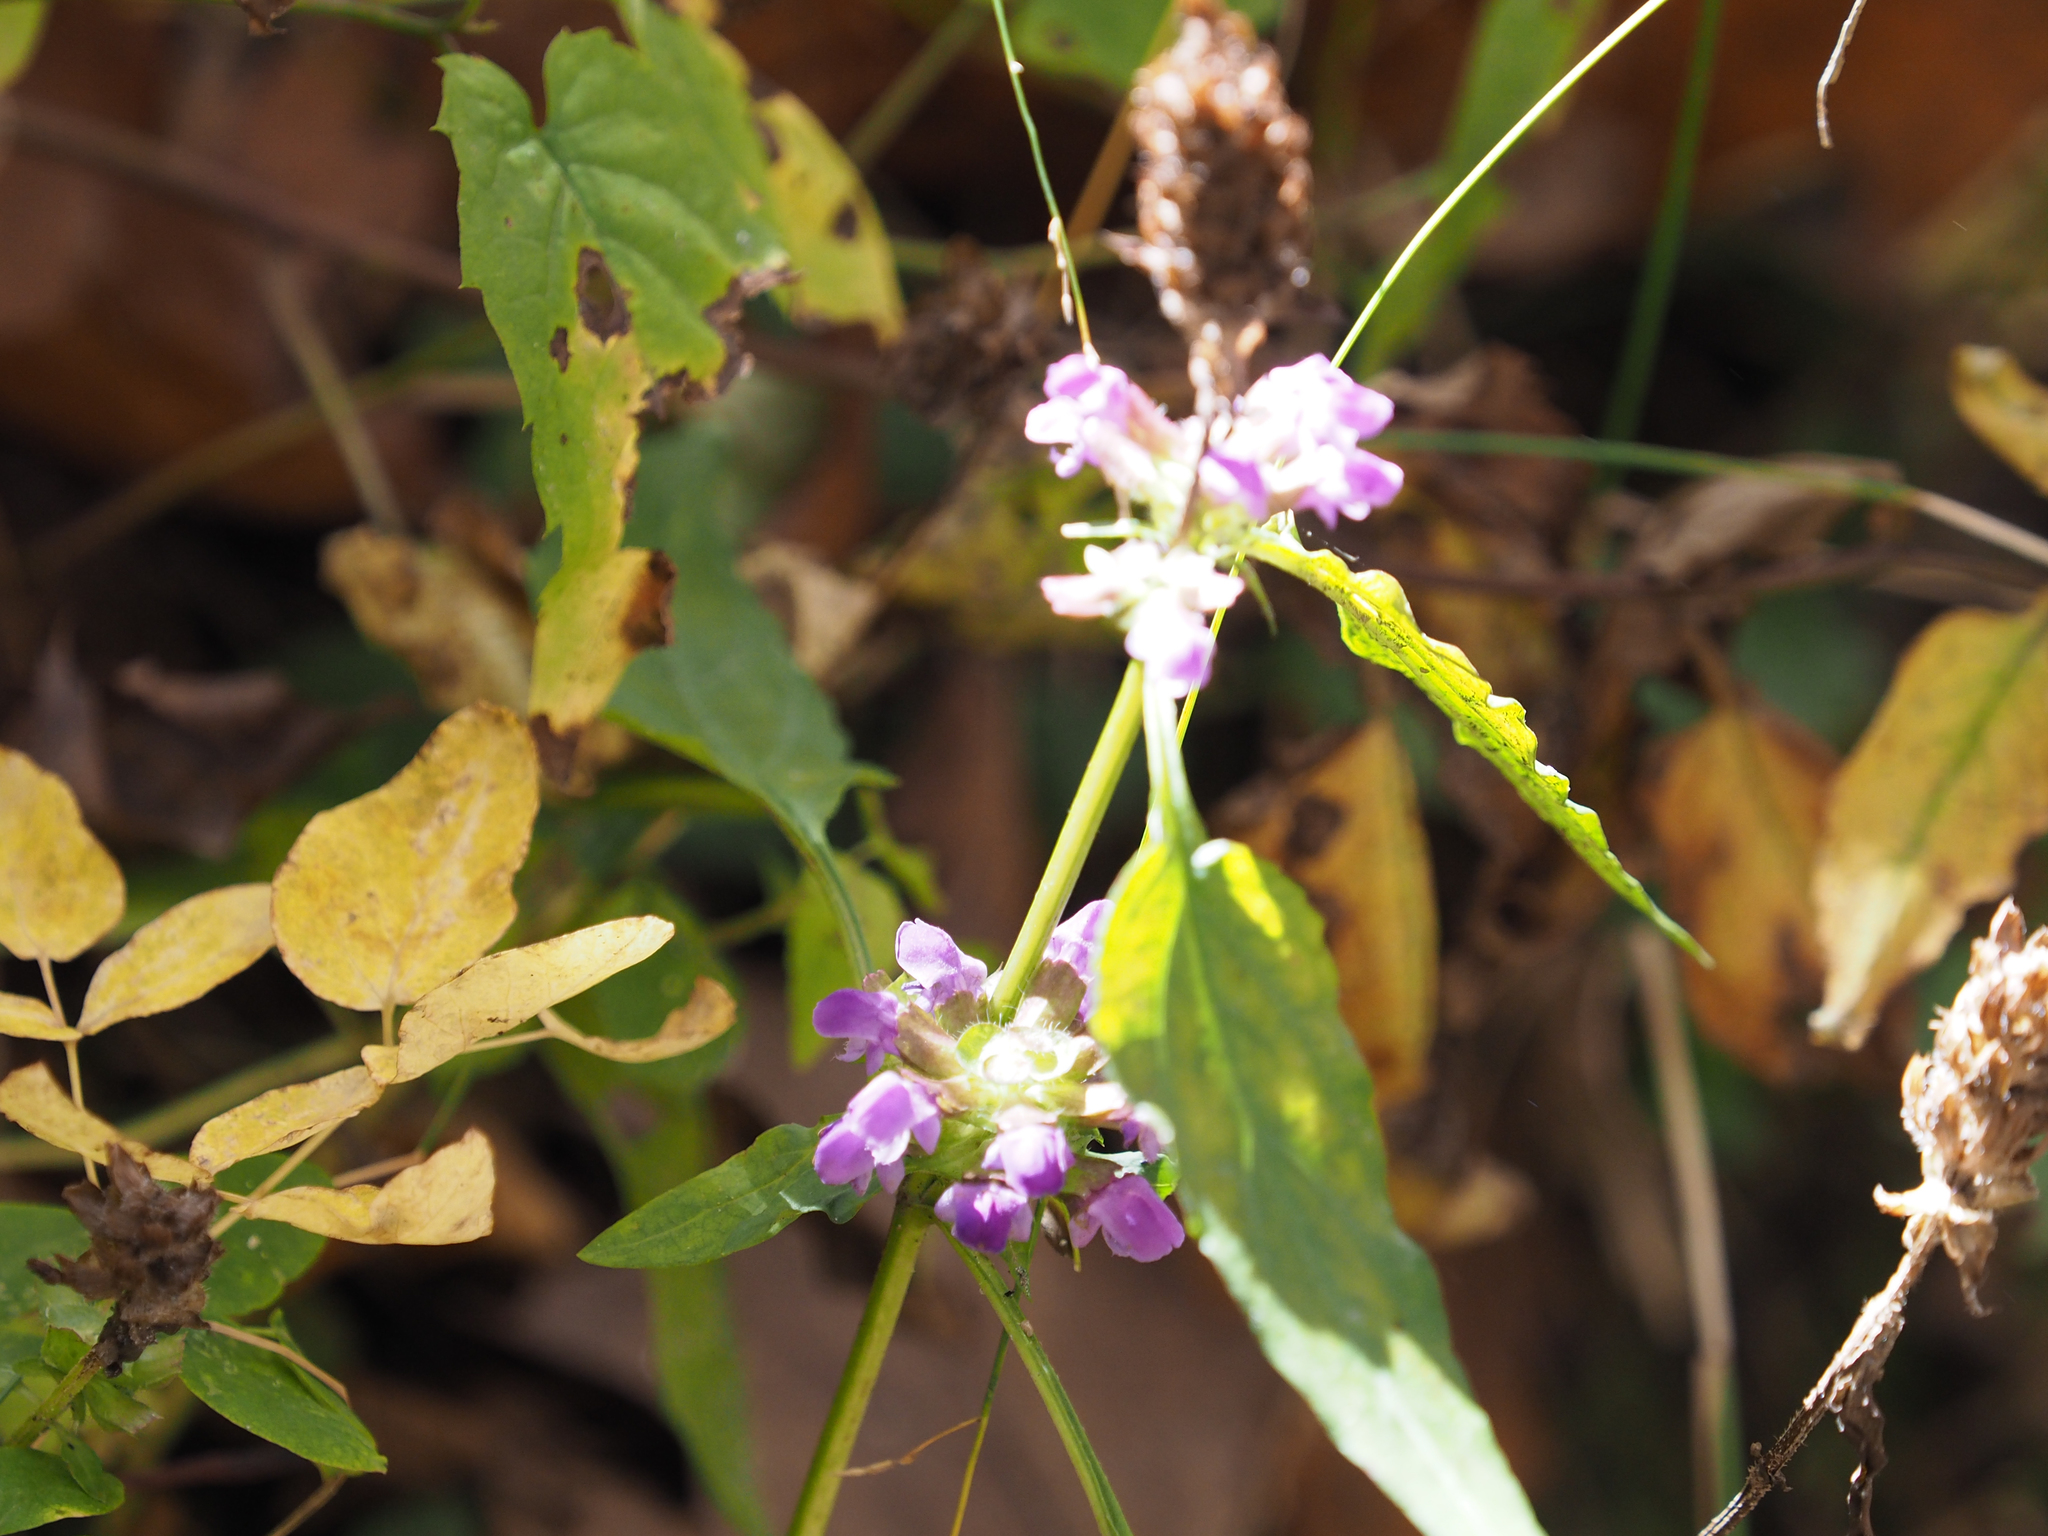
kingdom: Plantae
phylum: Tracheophyta
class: Magnoliopsida
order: Lamiales
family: Lamiaceae
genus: Prunella
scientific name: Prunella vulgaris
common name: Heal-all
